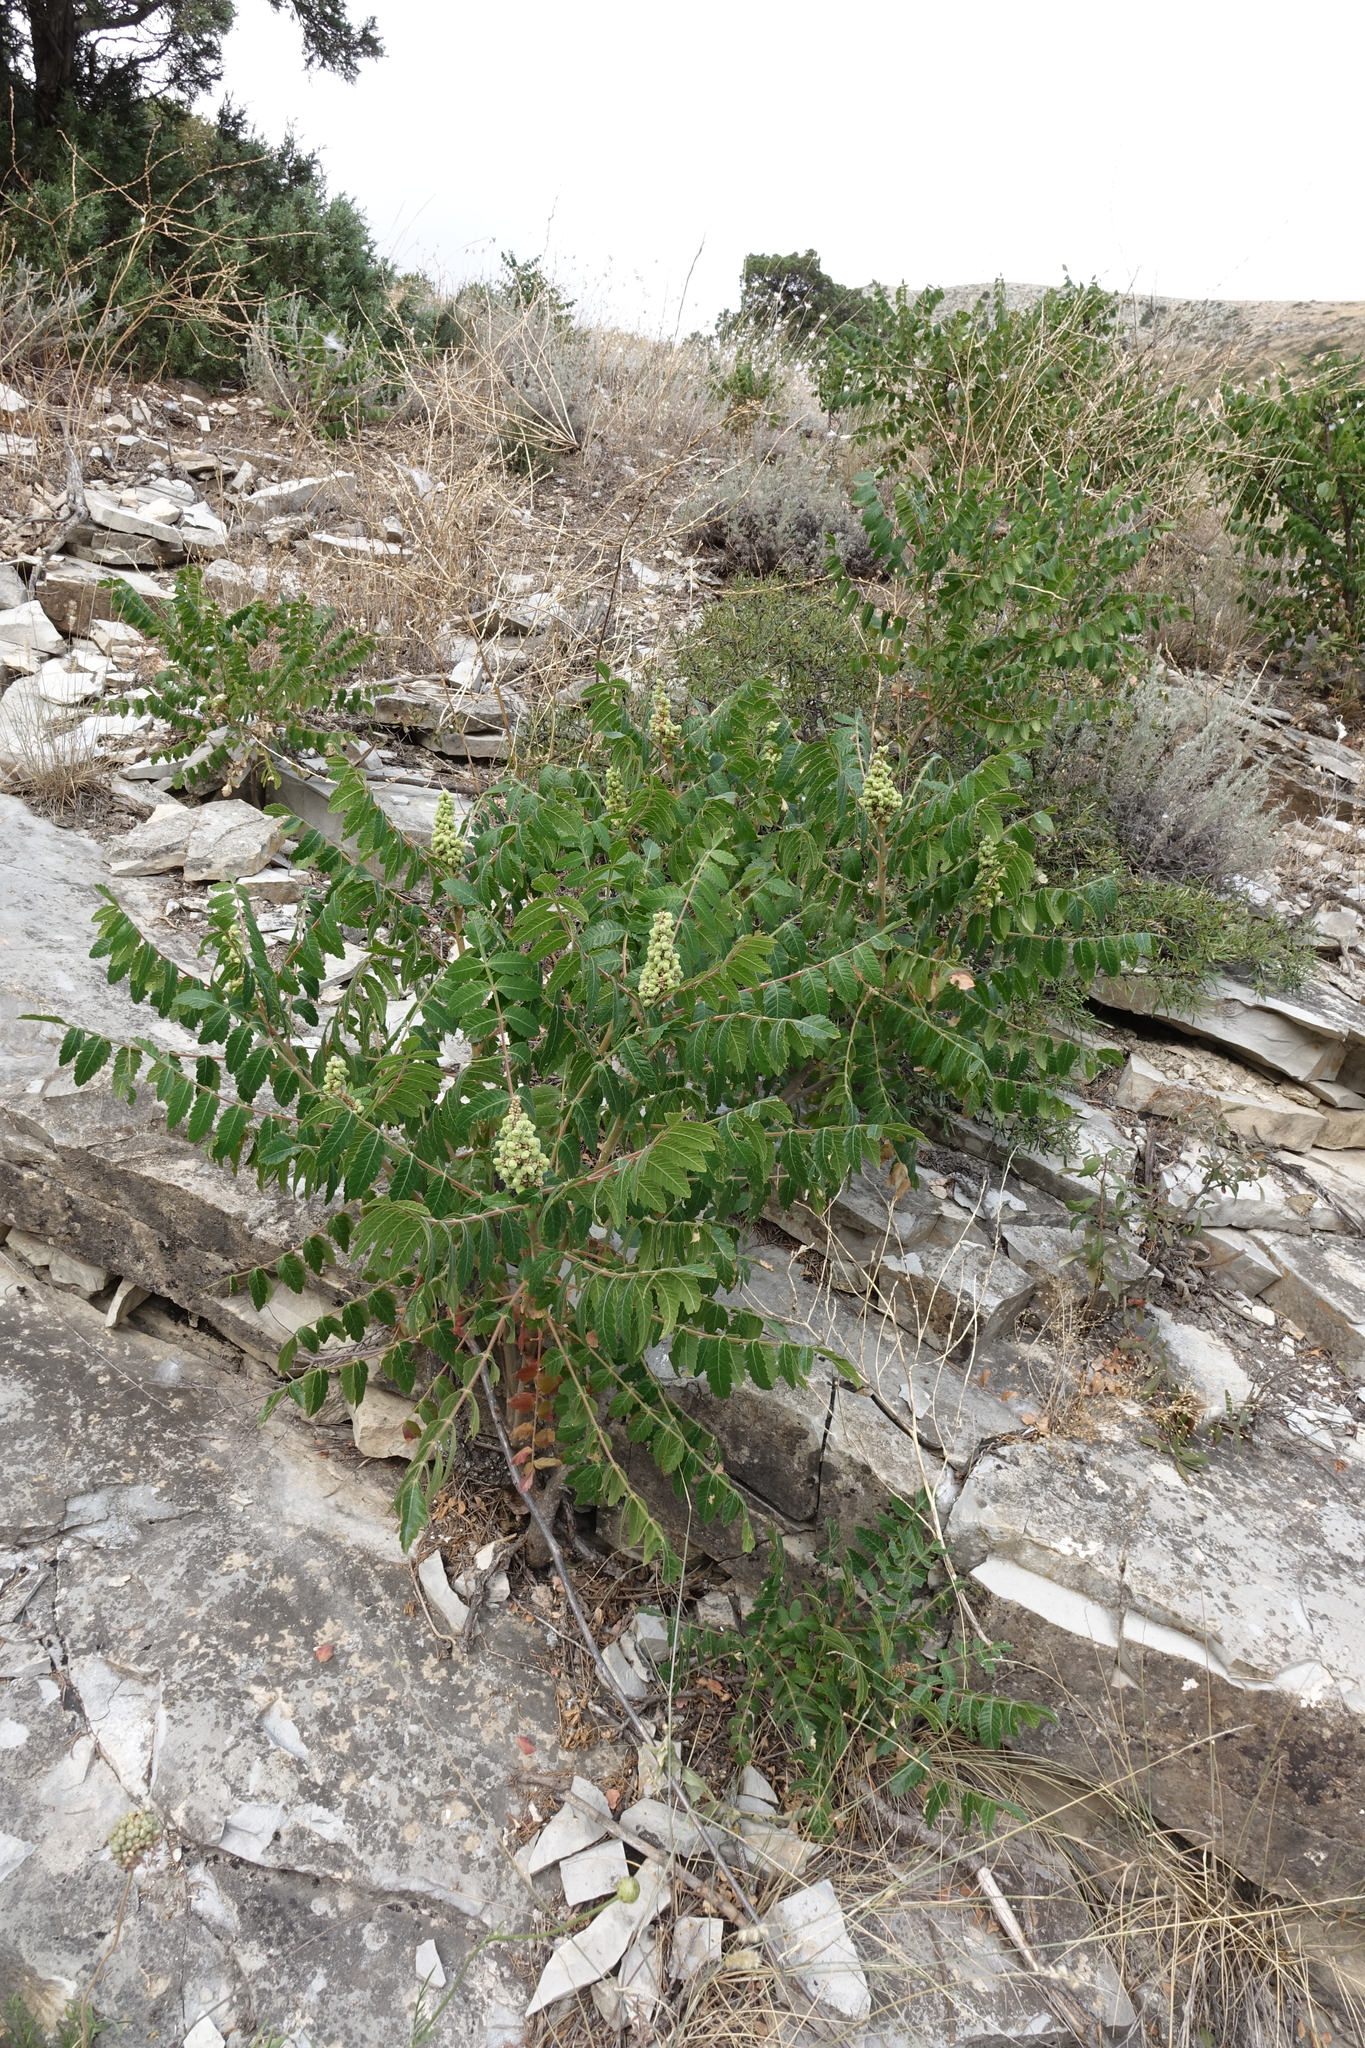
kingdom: Plantae
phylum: Tracheophyta
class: Magnoliopsida
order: Sapindales
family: Anacardiaceae
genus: Rhus
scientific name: Rhus coriaria
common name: Tanner's sumach
